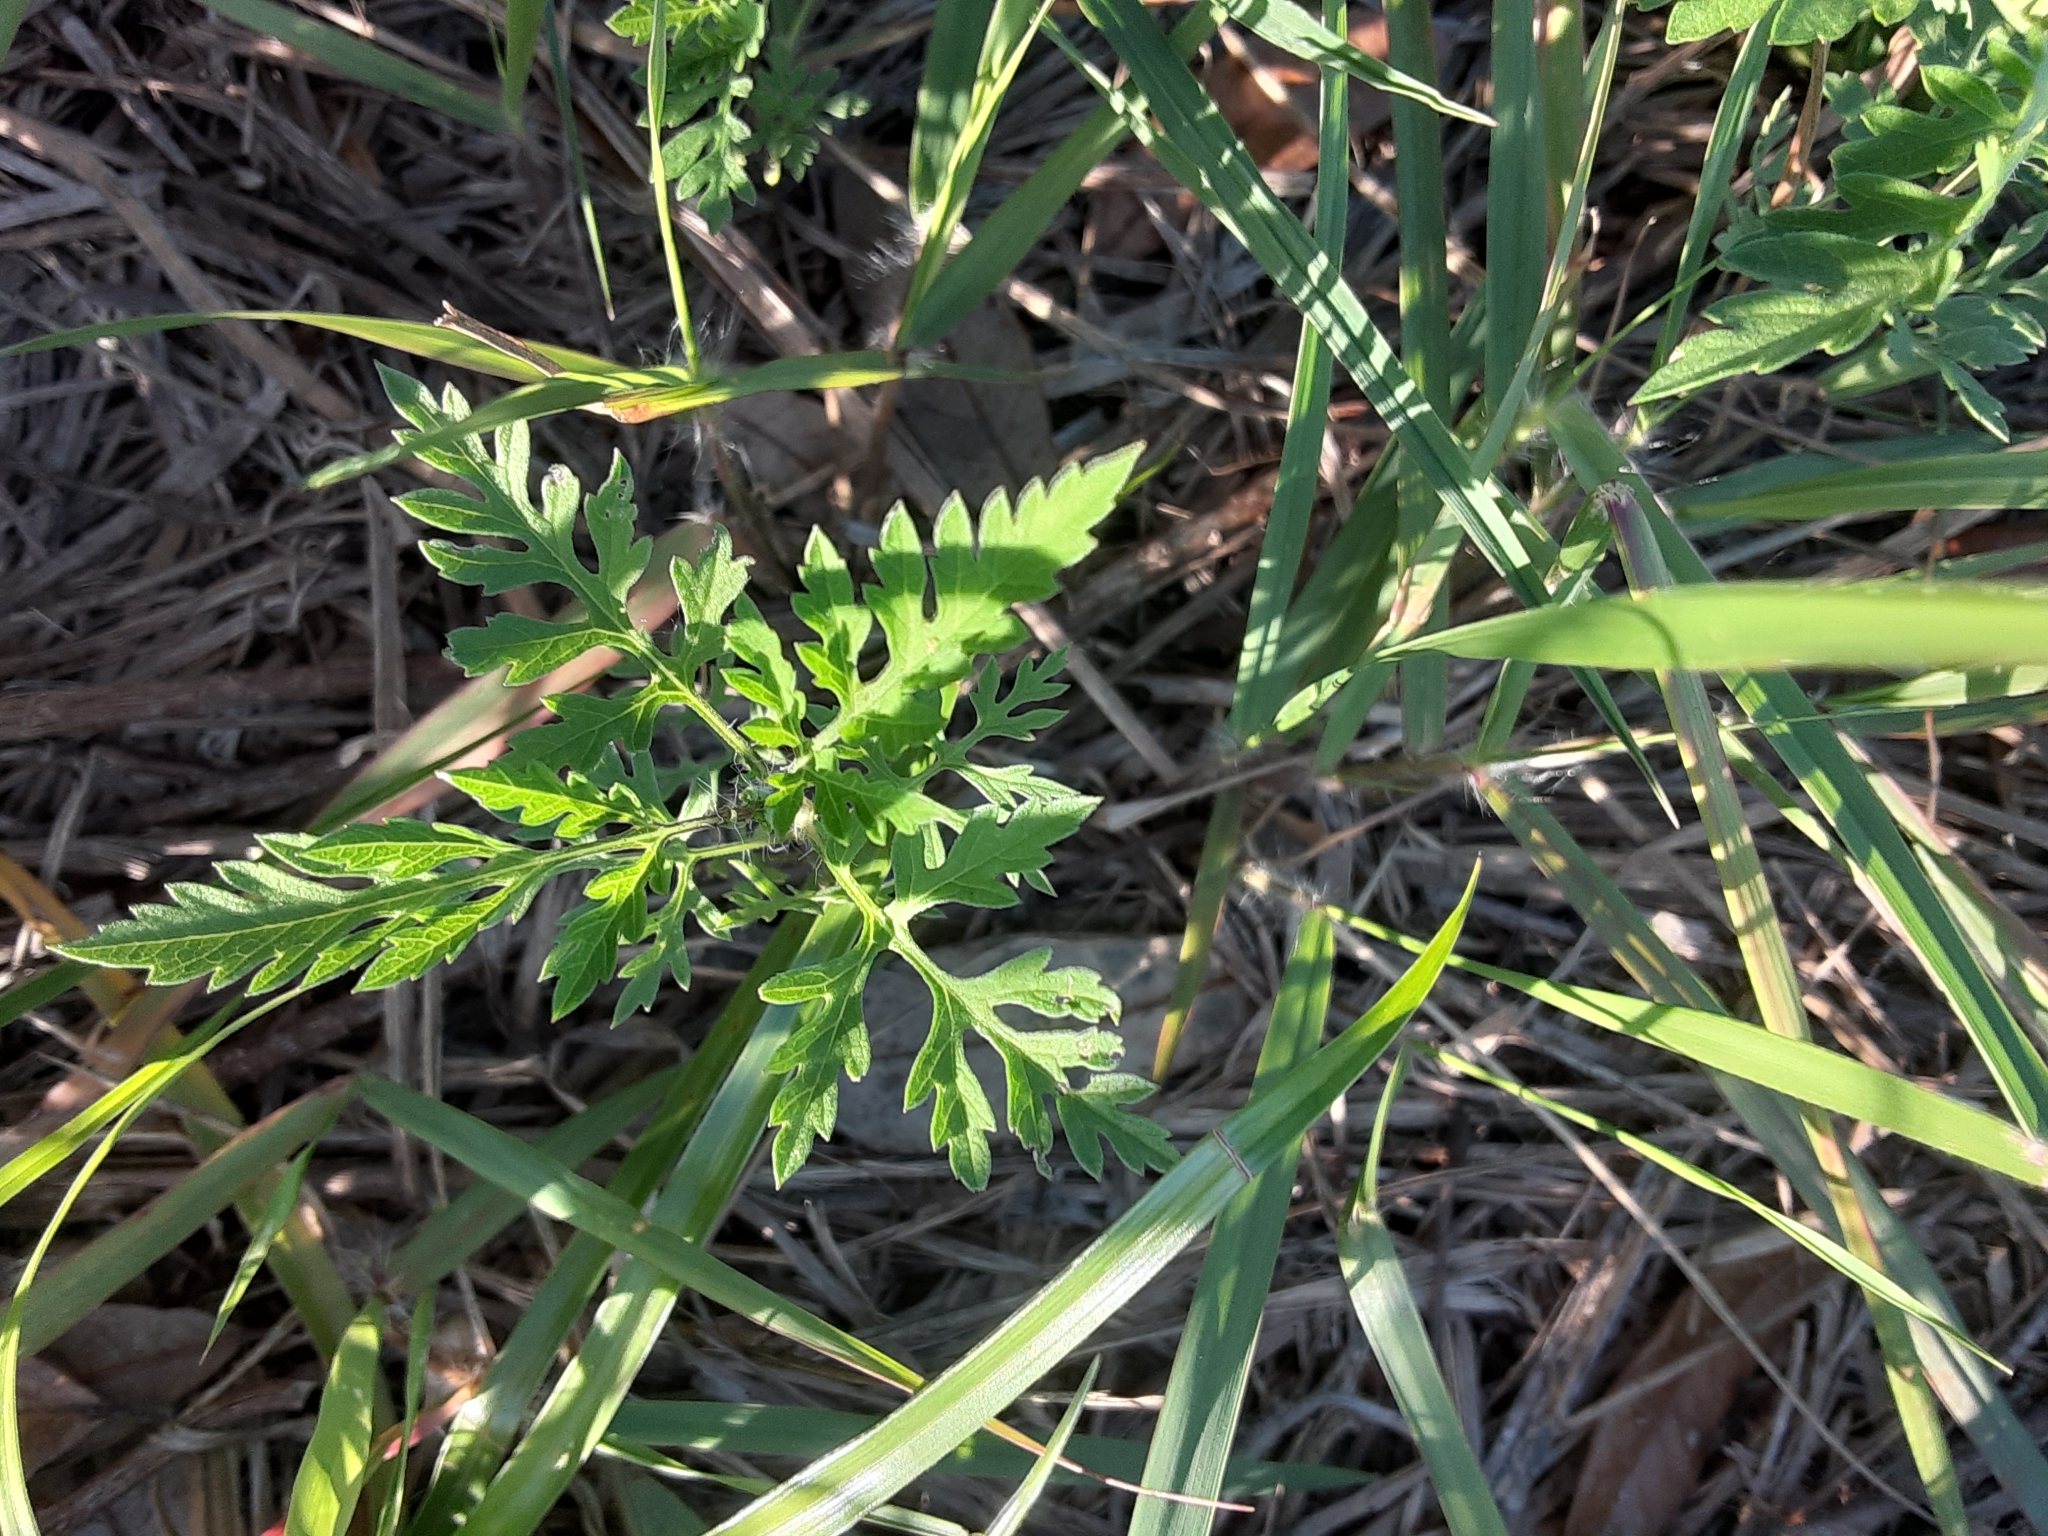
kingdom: Plantae
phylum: Tracheophyta
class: Magnoliopsida
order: Asterales
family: Asteraceae
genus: Ambrosia
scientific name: Ambrosia artemisiifolia
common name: Annual ragweed
